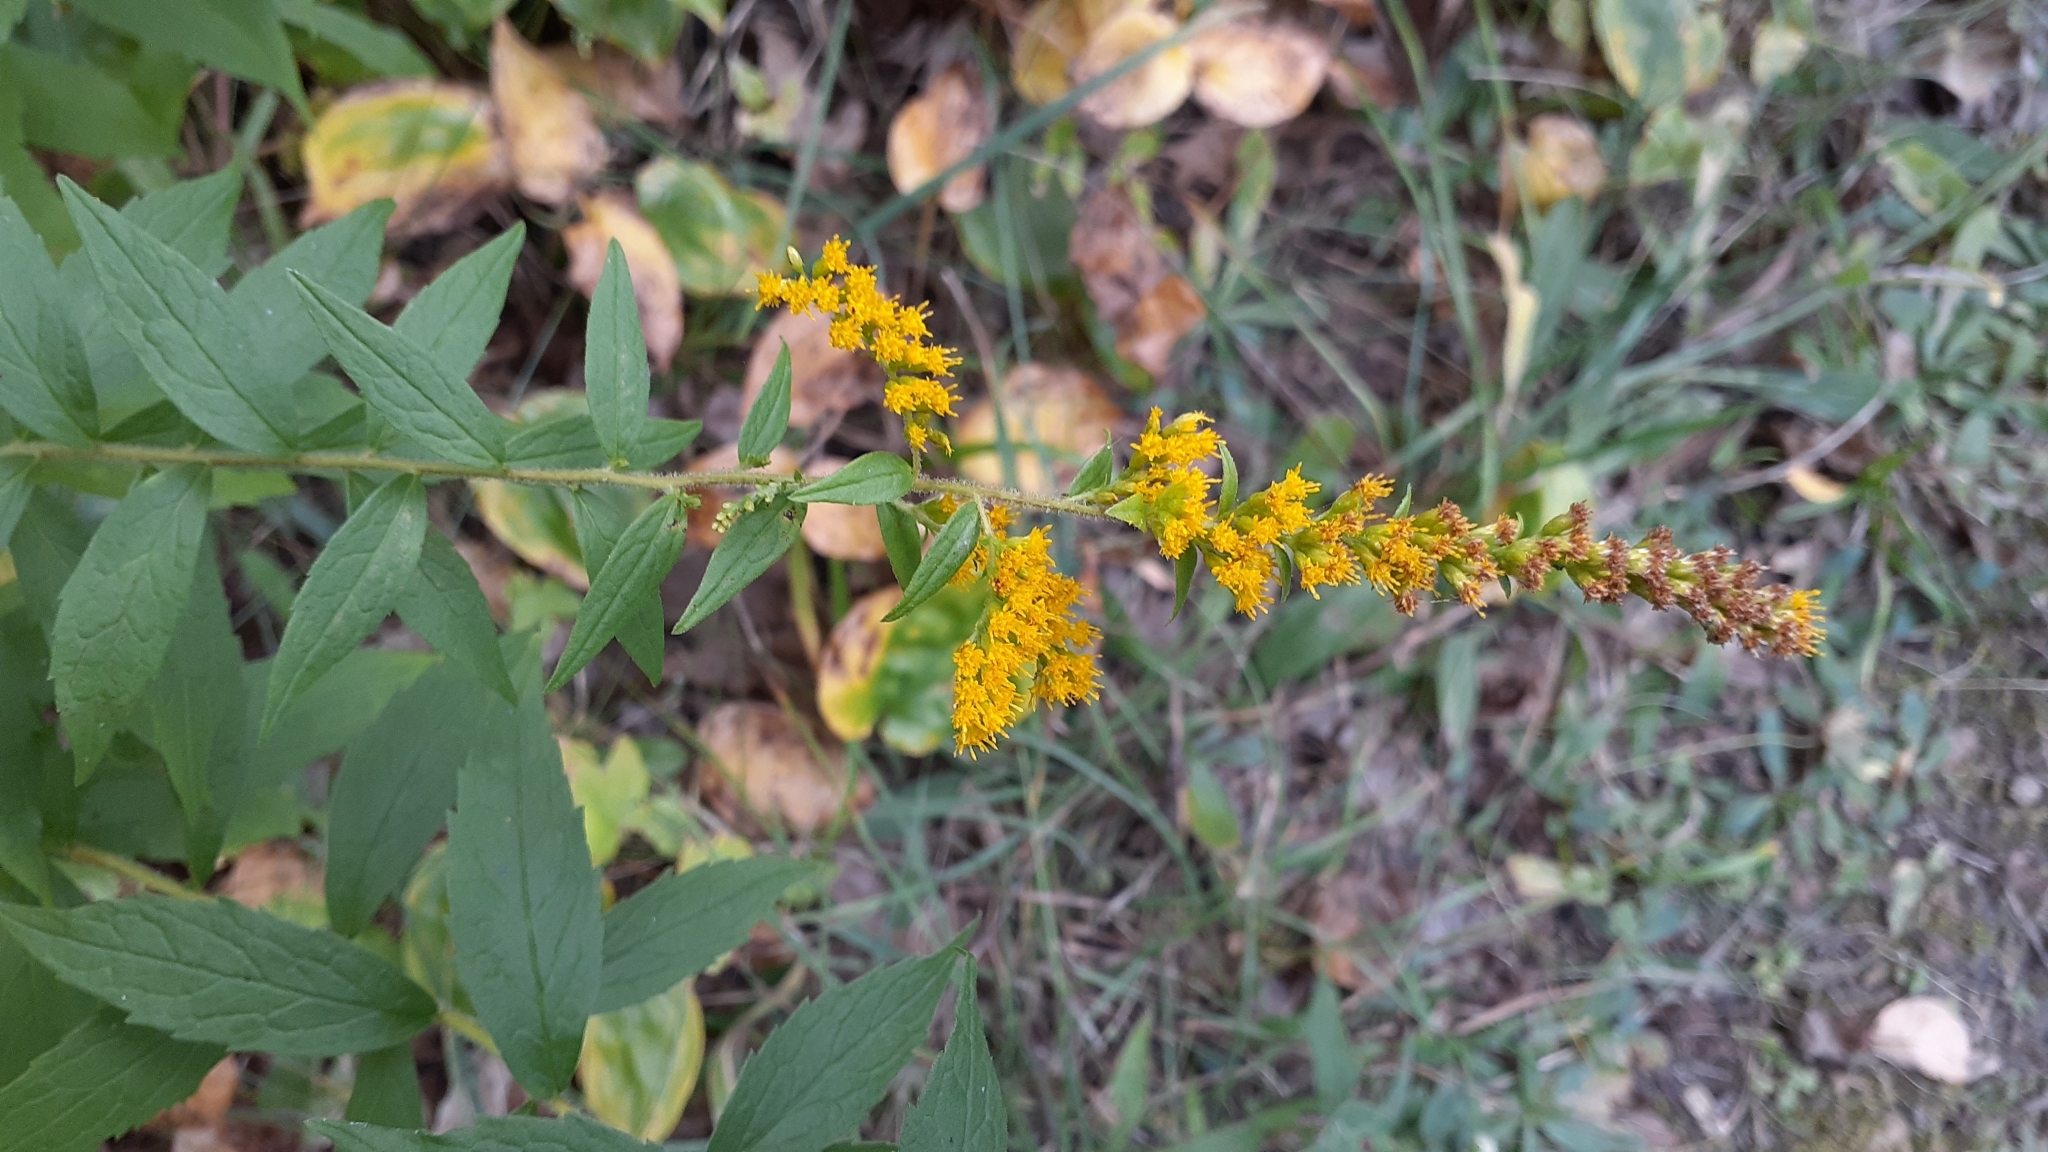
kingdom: Plantae
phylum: Tracheophyta
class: Magnoliopsida
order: Asterales
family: Asteraceae
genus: Solidago
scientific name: Solidago rugosa
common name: Rough-stemmed goldenrod
